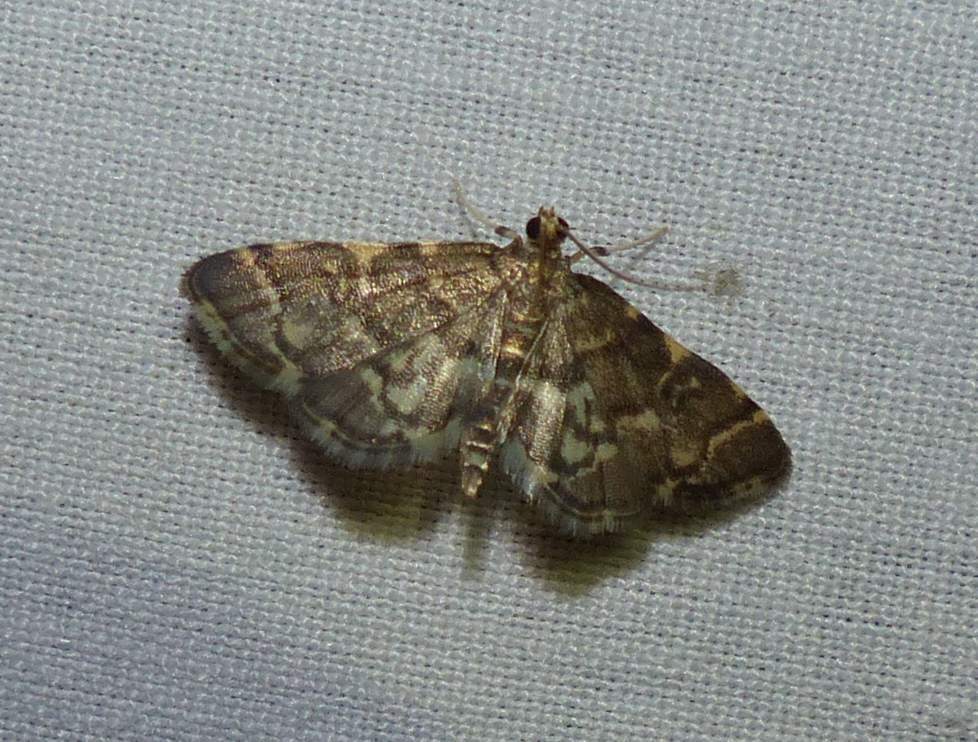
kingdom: Animalia
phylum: Arthropoda
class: Insecta
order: Lepidoptera
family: Crambidae
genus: Anageshna
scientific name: Anageshna primordialis
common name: Yellow-spotted webworm moth
